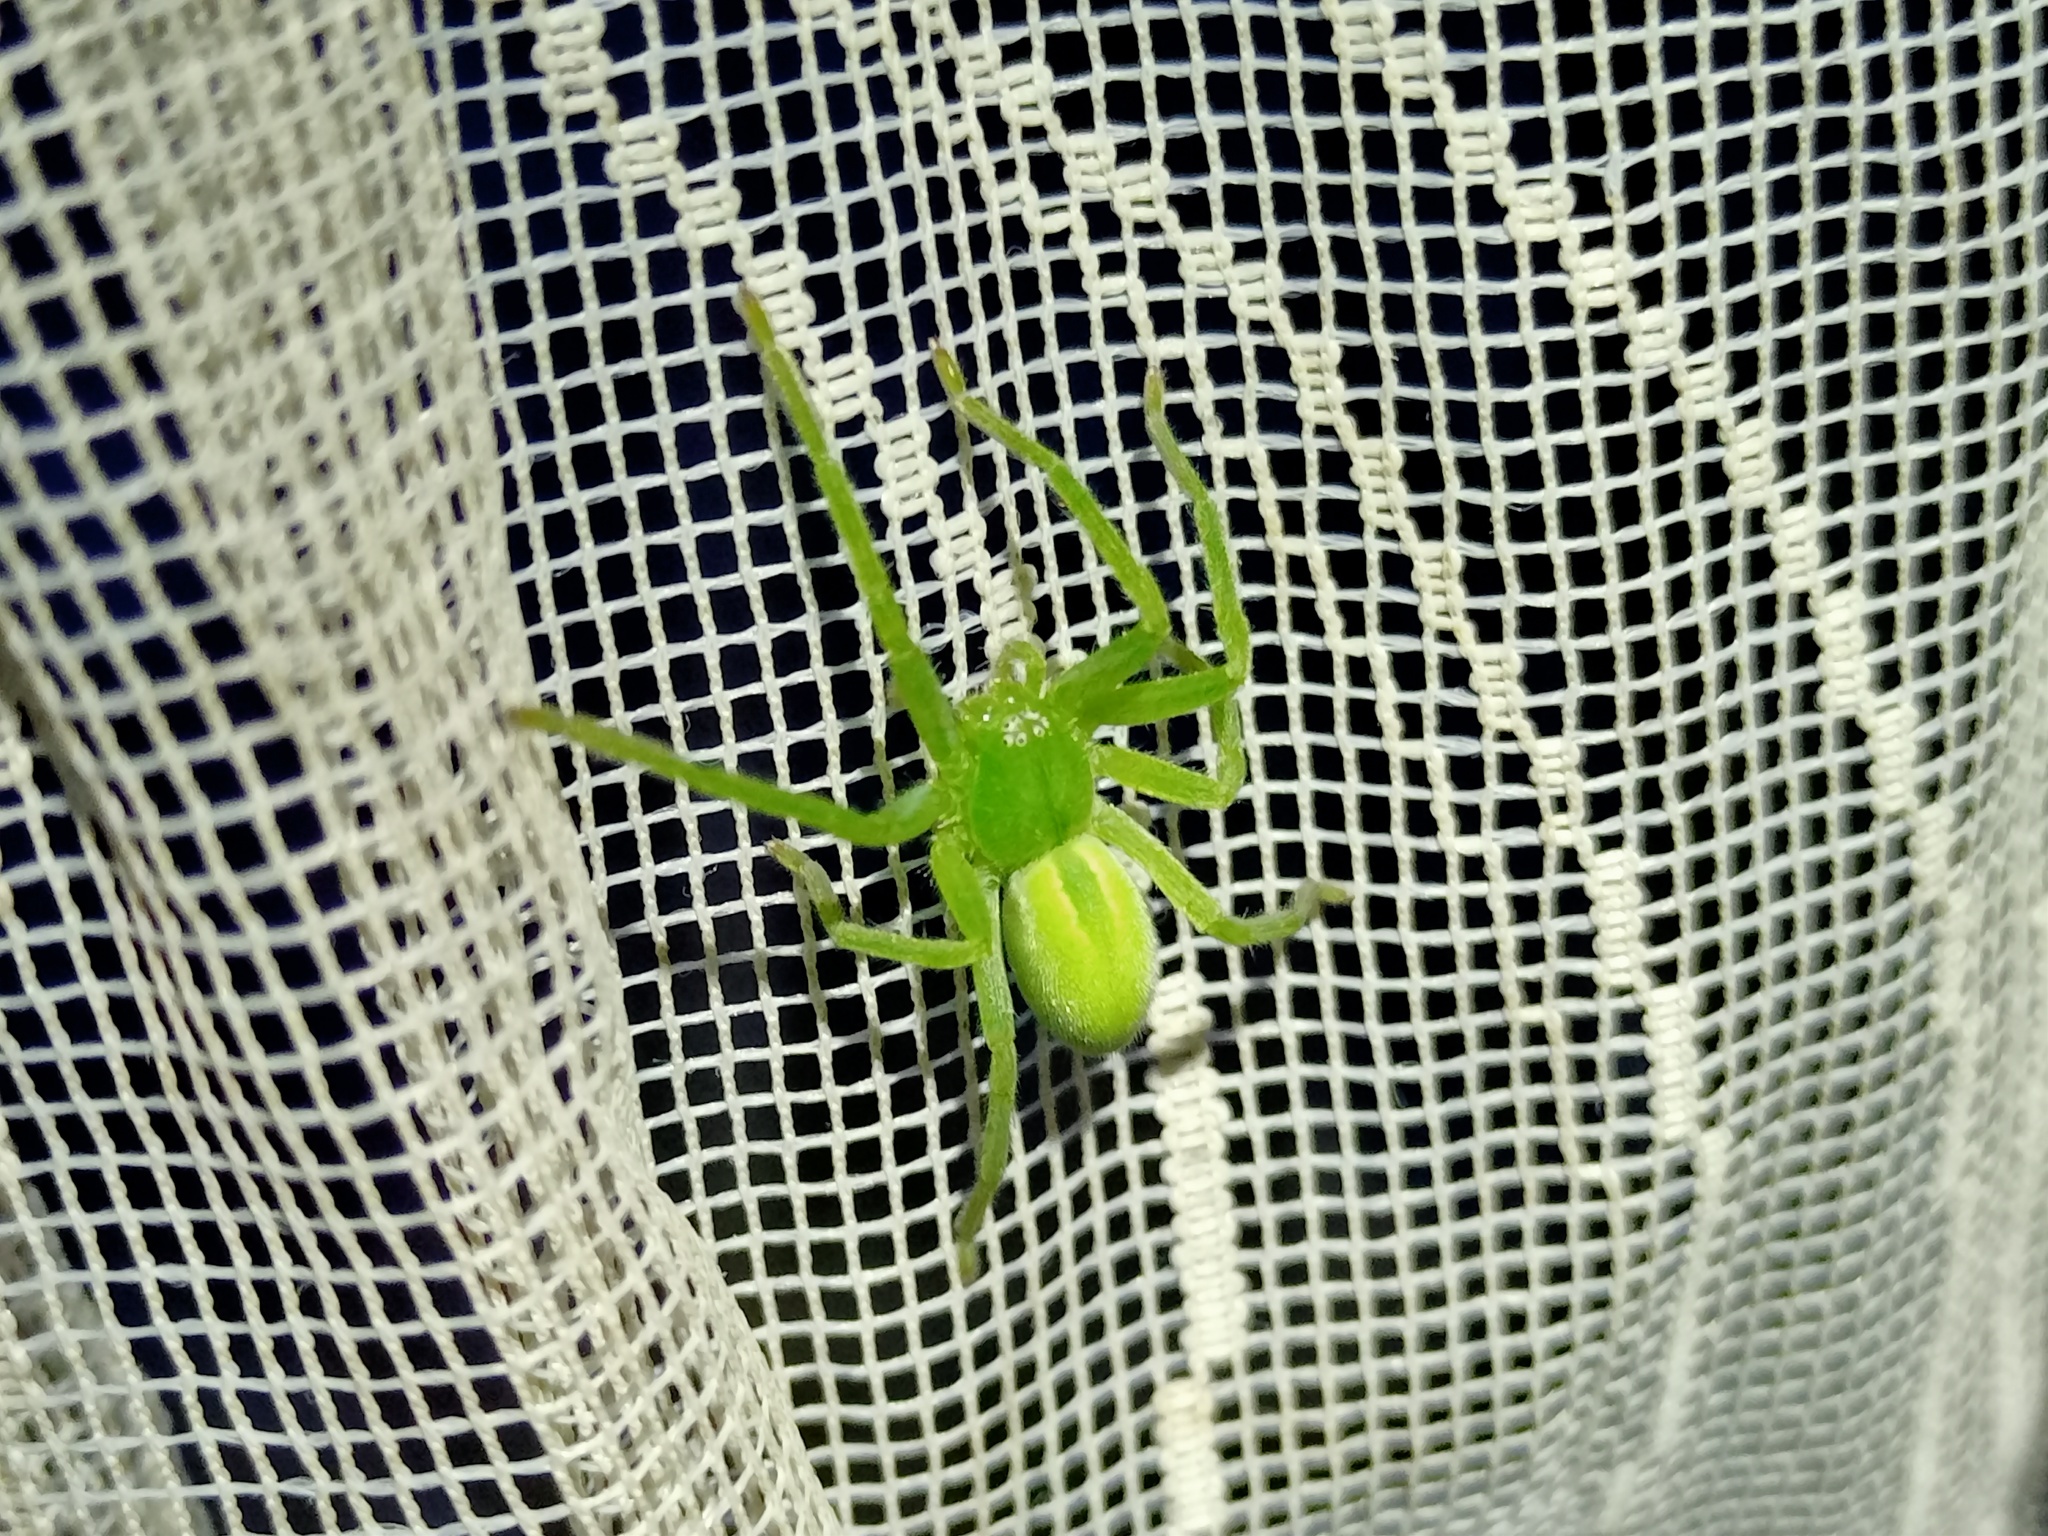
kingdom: Animalia
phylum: Arthropoda
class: Arachnida
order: Araneae
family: Sparassidae
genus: Micrommata
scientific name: Micrommata virescens
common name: Green spider
